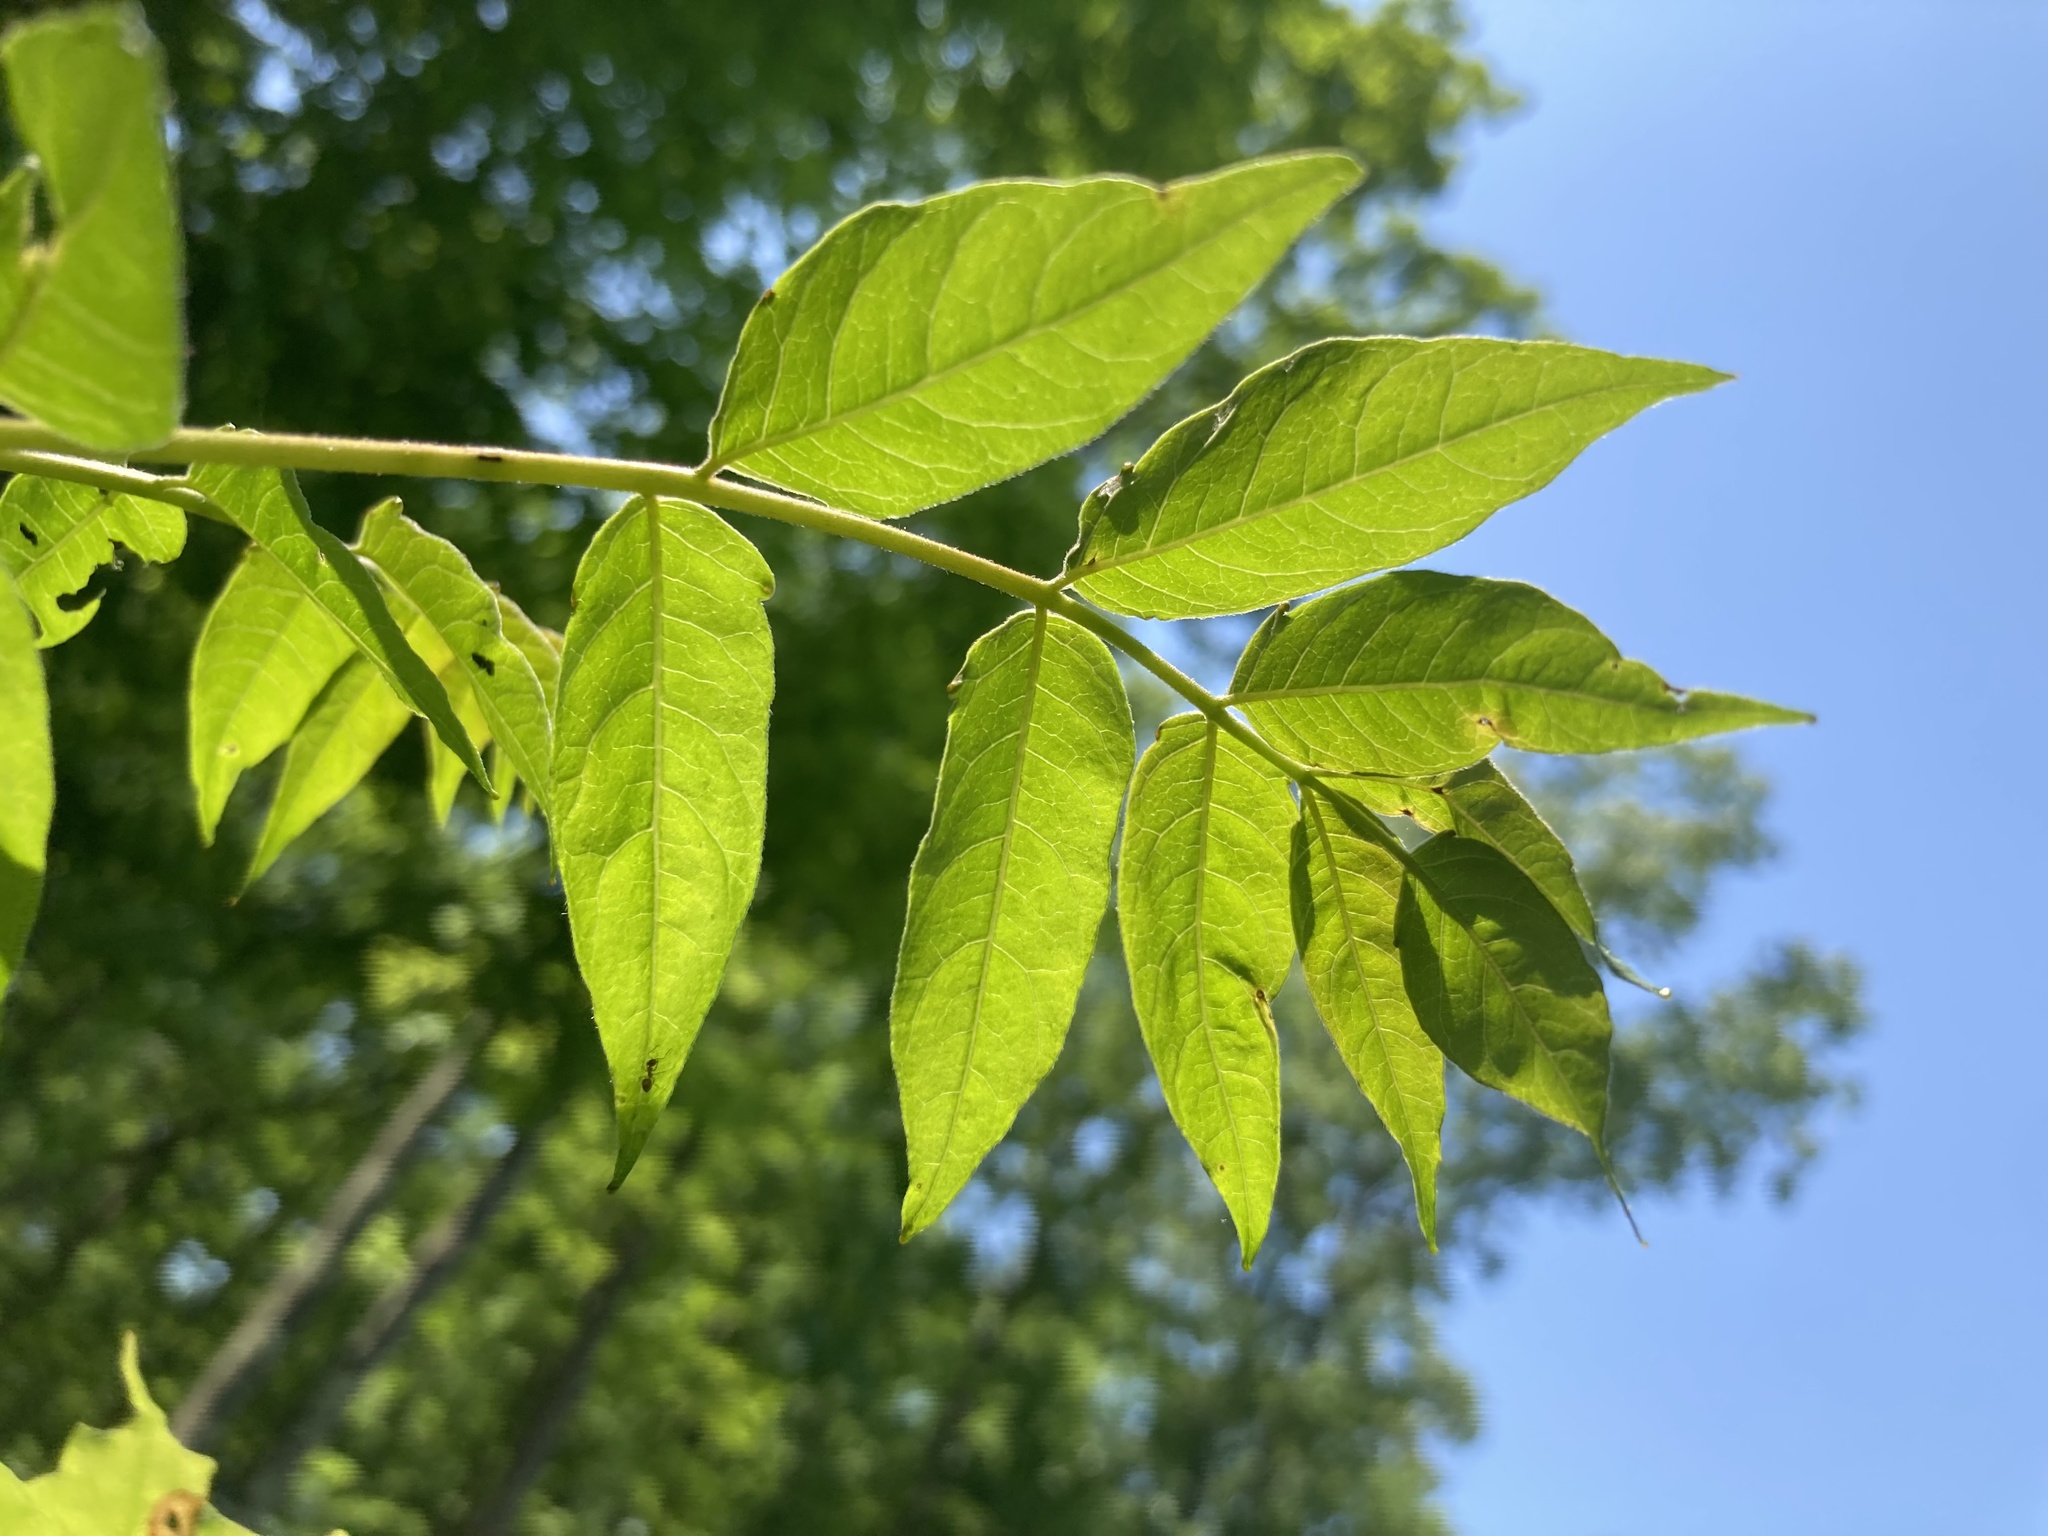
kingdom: Plantae
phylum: Tracheophyta
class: Magnoliopsida
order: Sapindales
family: Simaroubaceae
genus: Ailanthus
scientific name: Ailanthus altissima
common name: Tree-of-heaven
